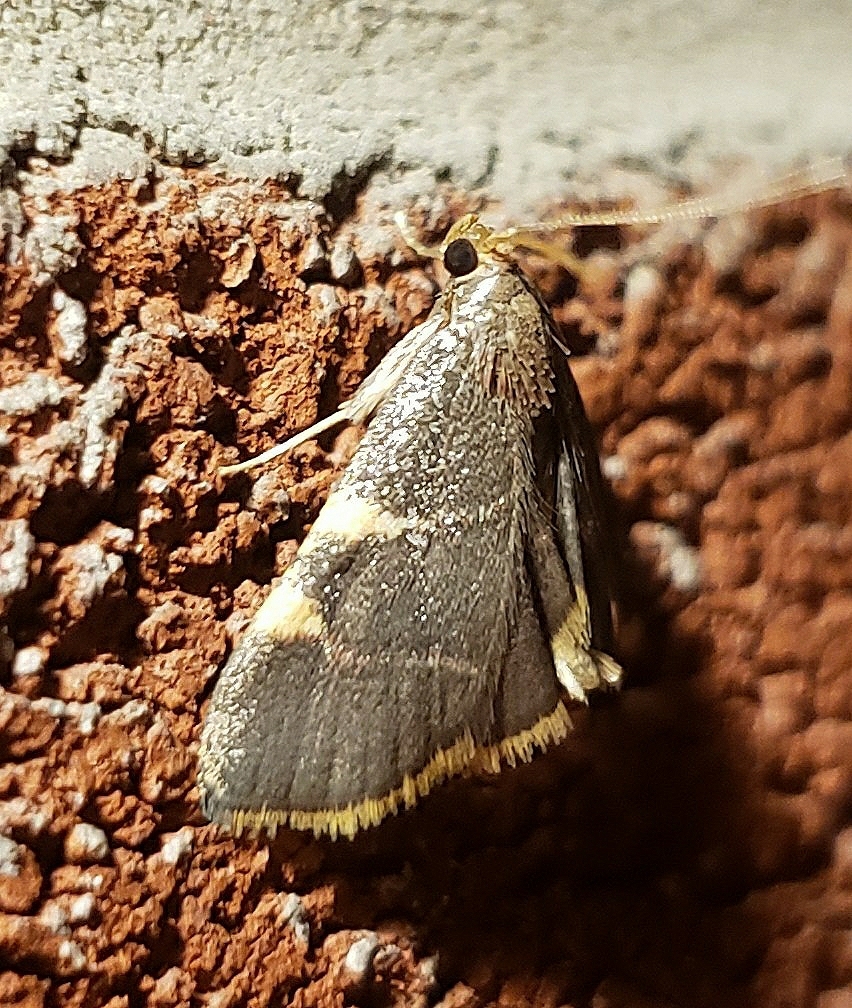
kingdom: Animalia
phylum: Arthropoda
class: Insecta
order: Lepidoptera
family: Pyralidae
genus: Hypsopygia
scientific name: Hypsopygia olinalis
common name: Yellow-fringed dolichomia moth
